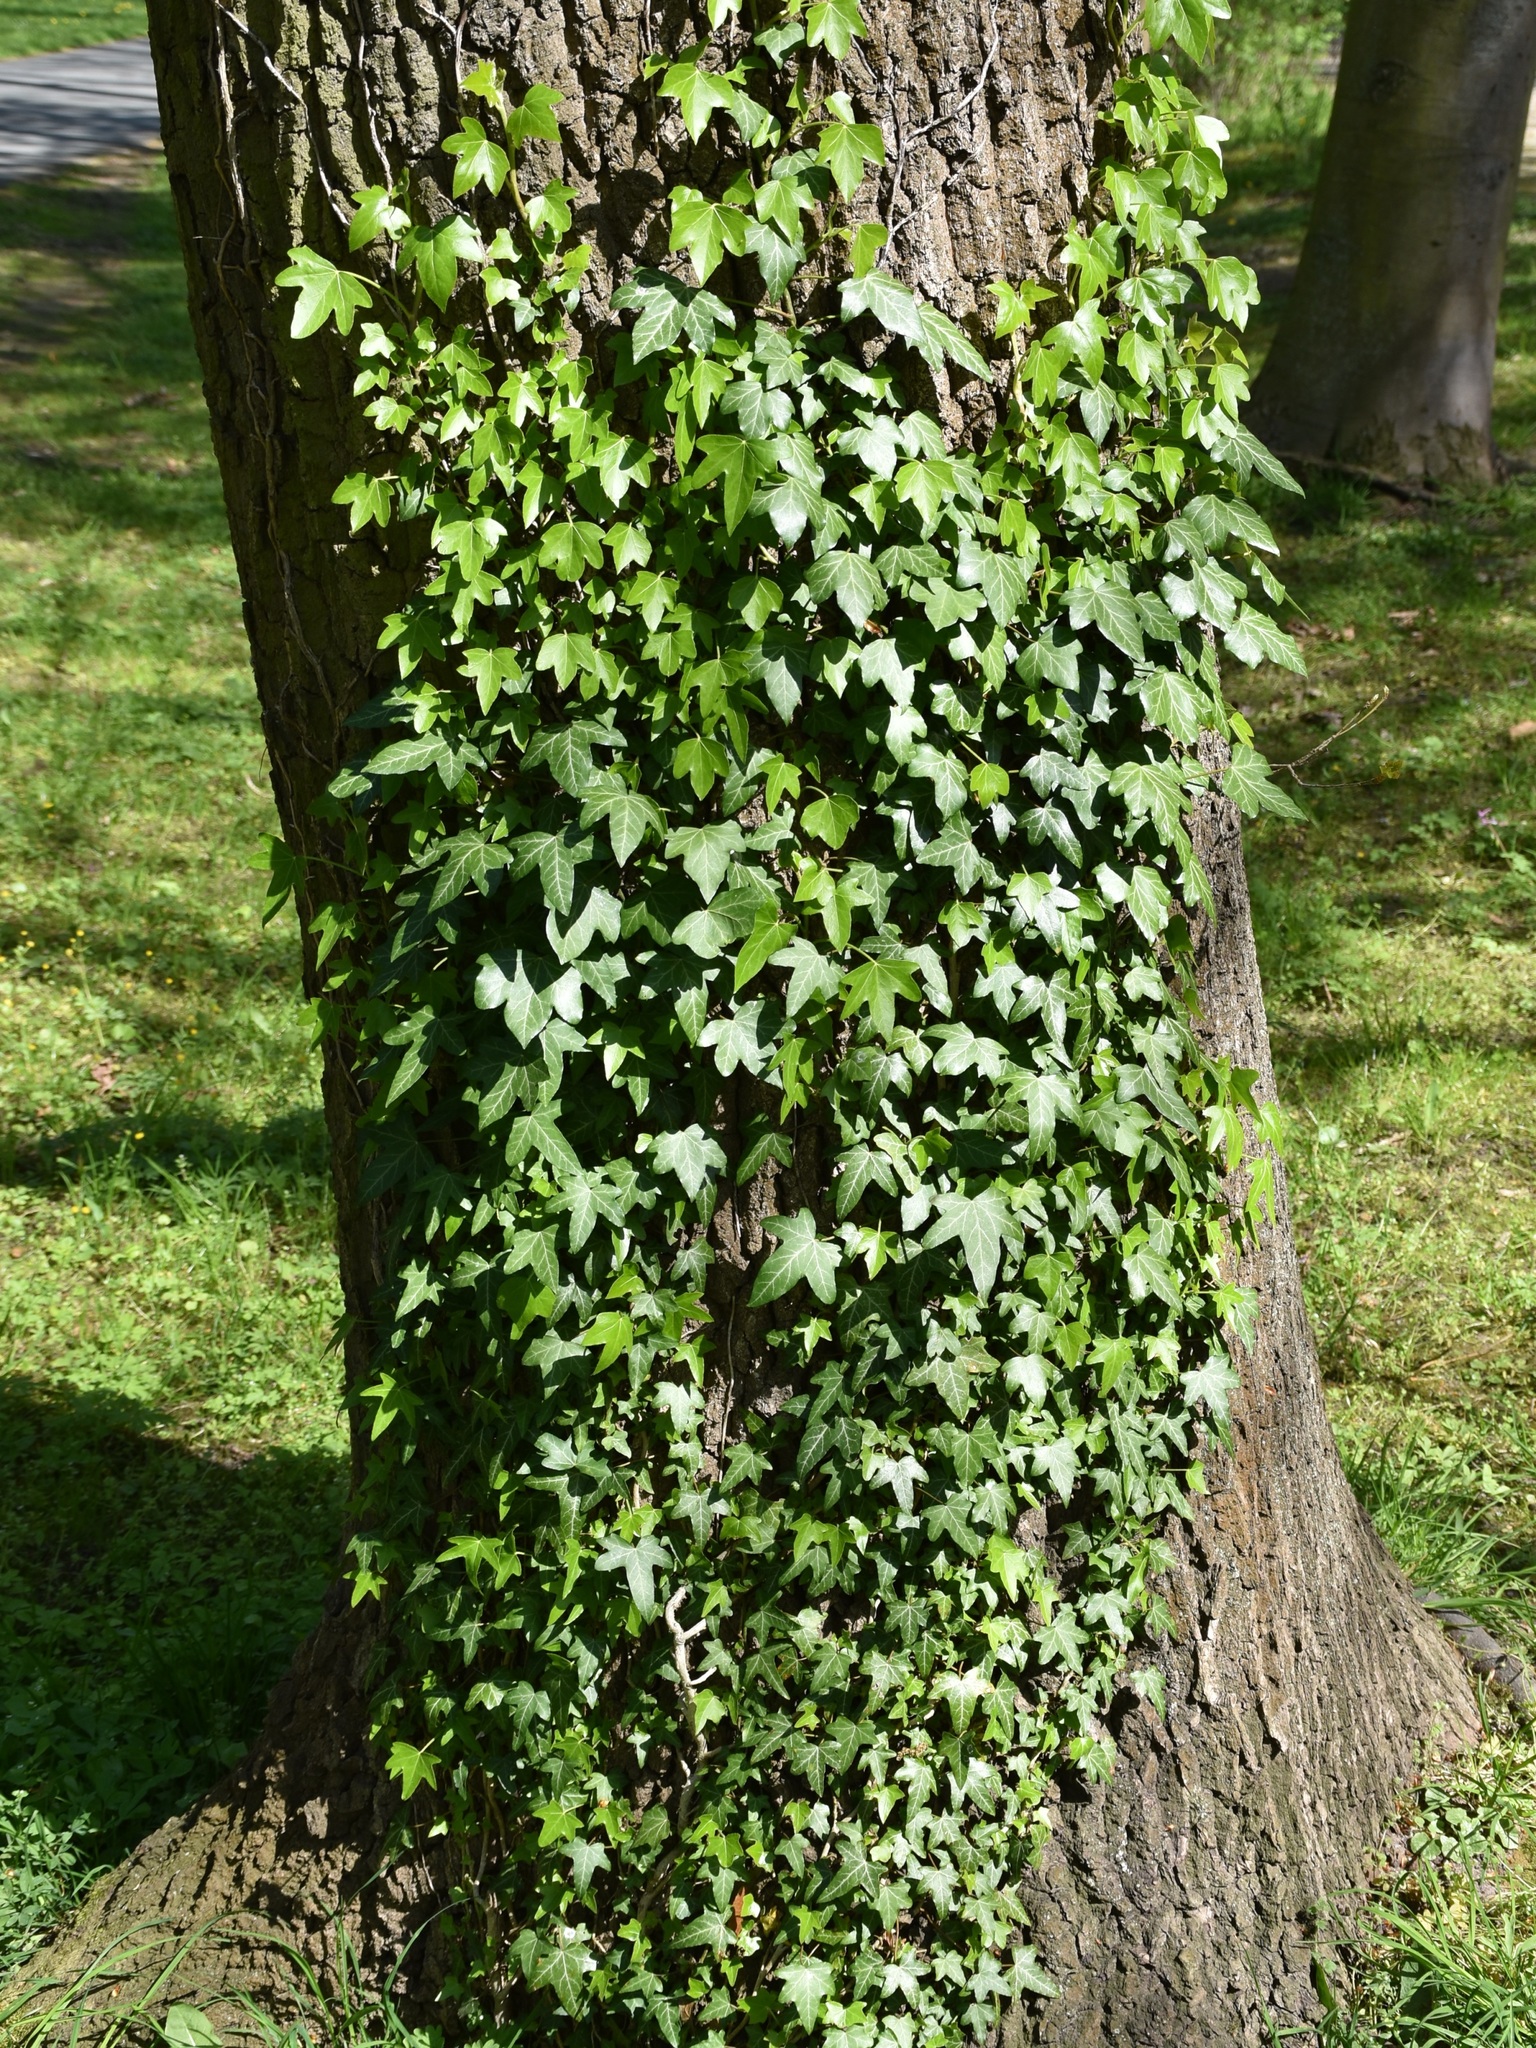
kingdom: Plantae
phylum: Tracheophyta
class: Magnoliopsida
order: Apiales
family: Araliaceae
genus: Hedera
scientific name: Hedera helix
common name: Ivy
